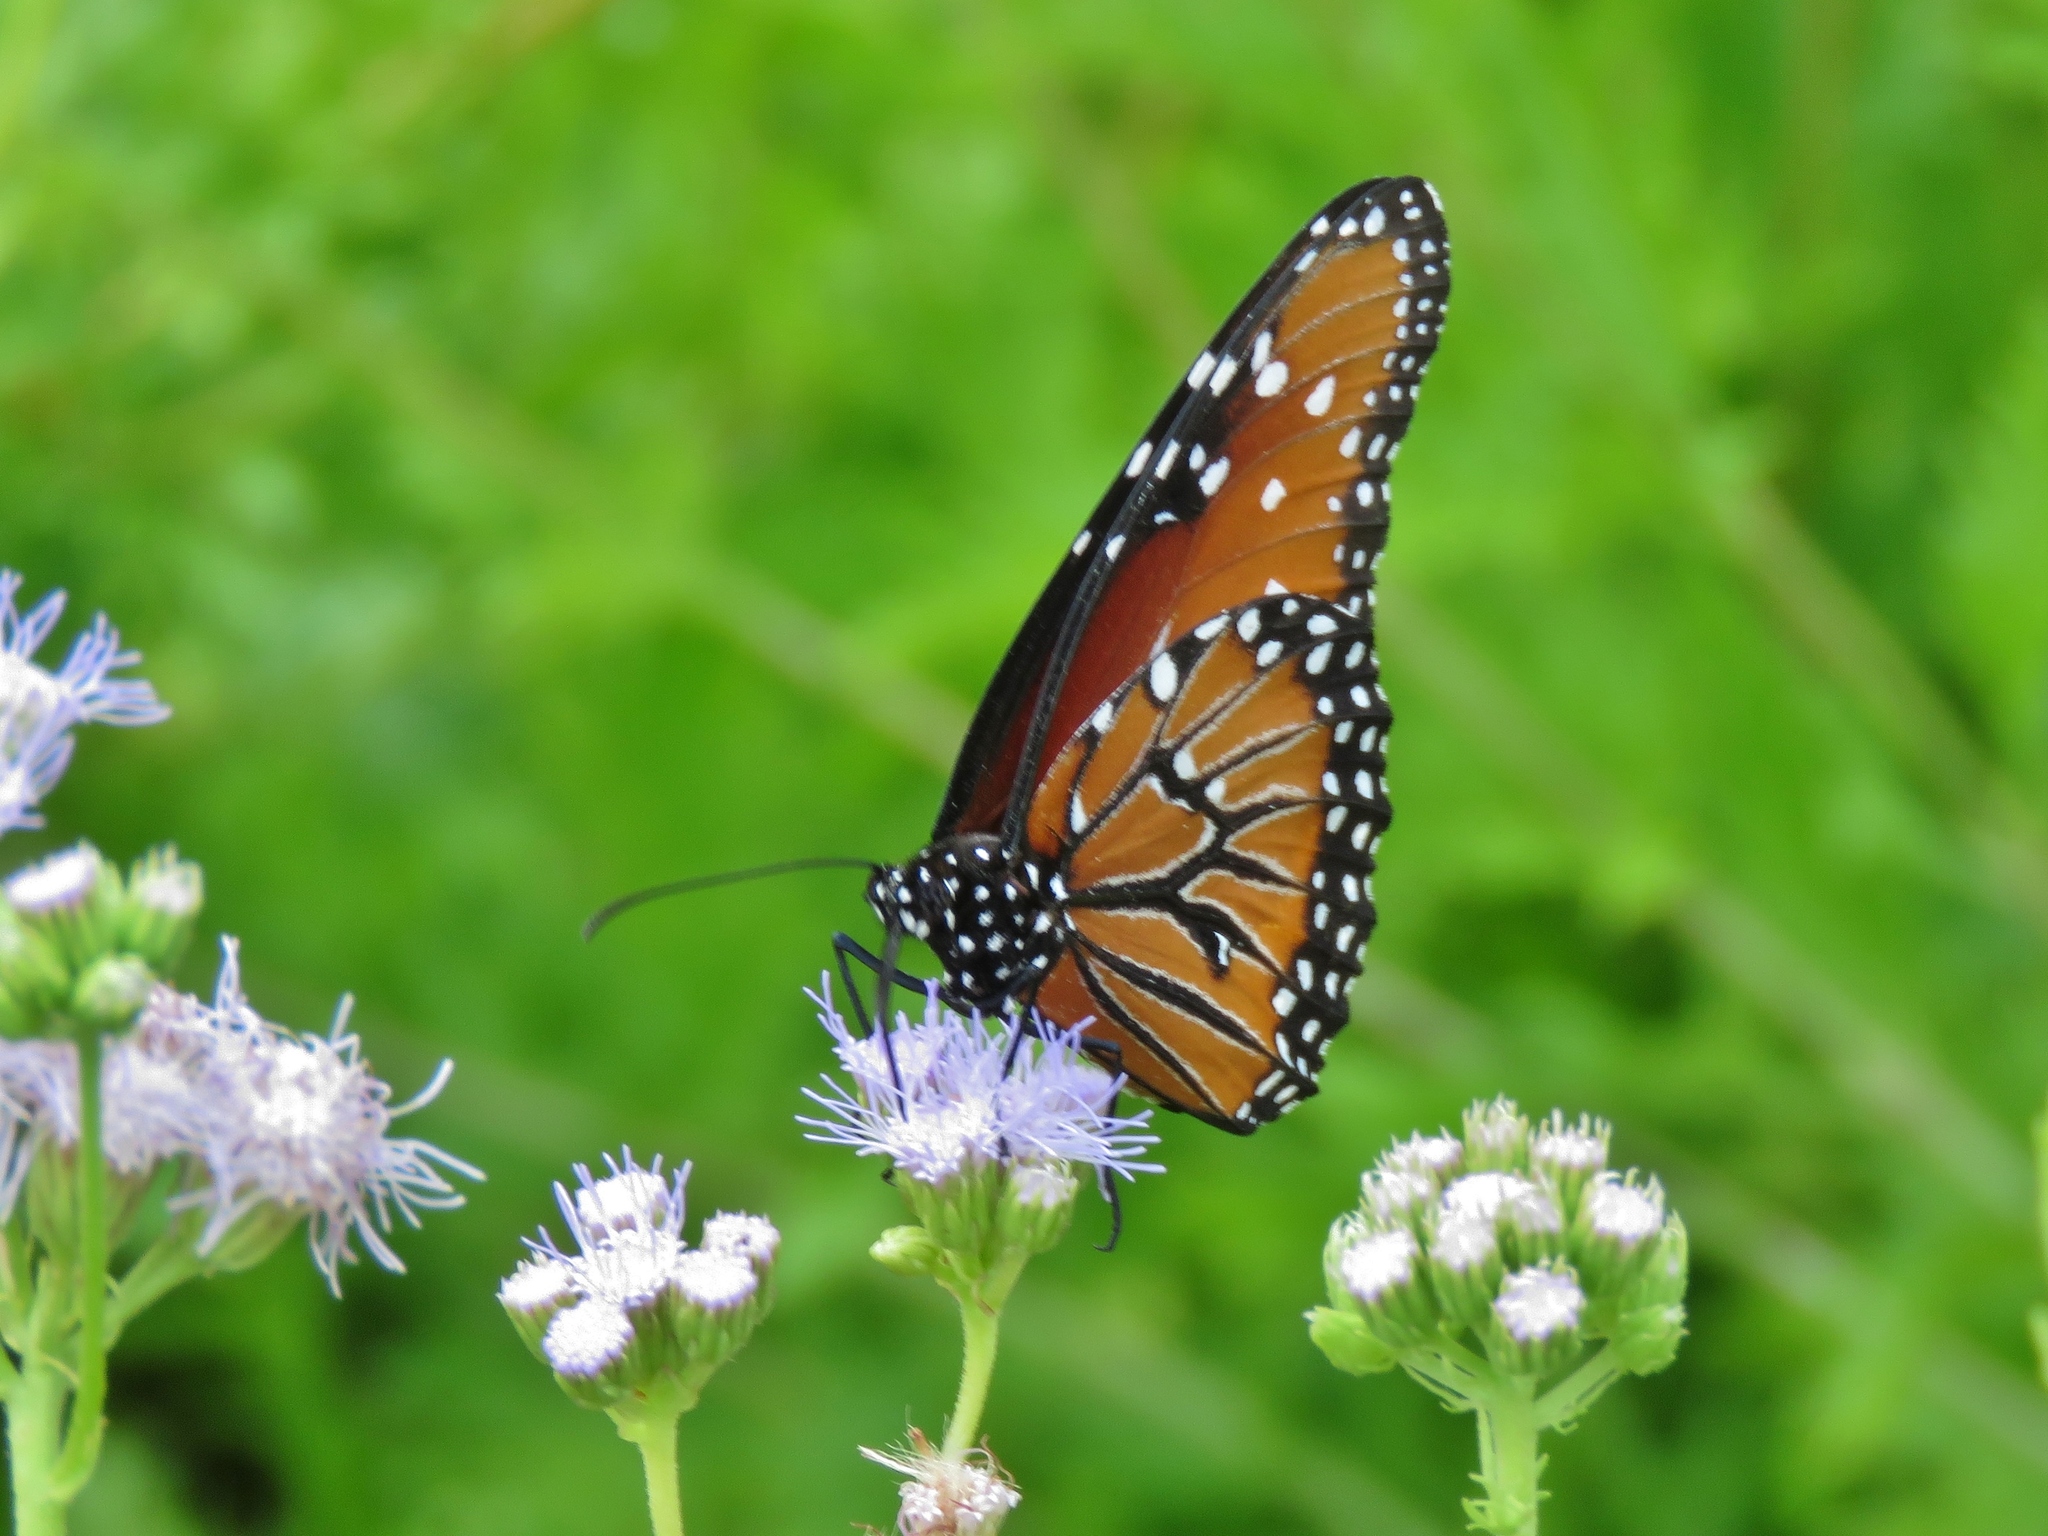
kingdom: Animalia
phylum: Arthropoda
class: Insecta
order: Lepidoptera
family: Nymphalidae
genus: Danaus
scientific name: Danaus gilippus
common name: Queen
